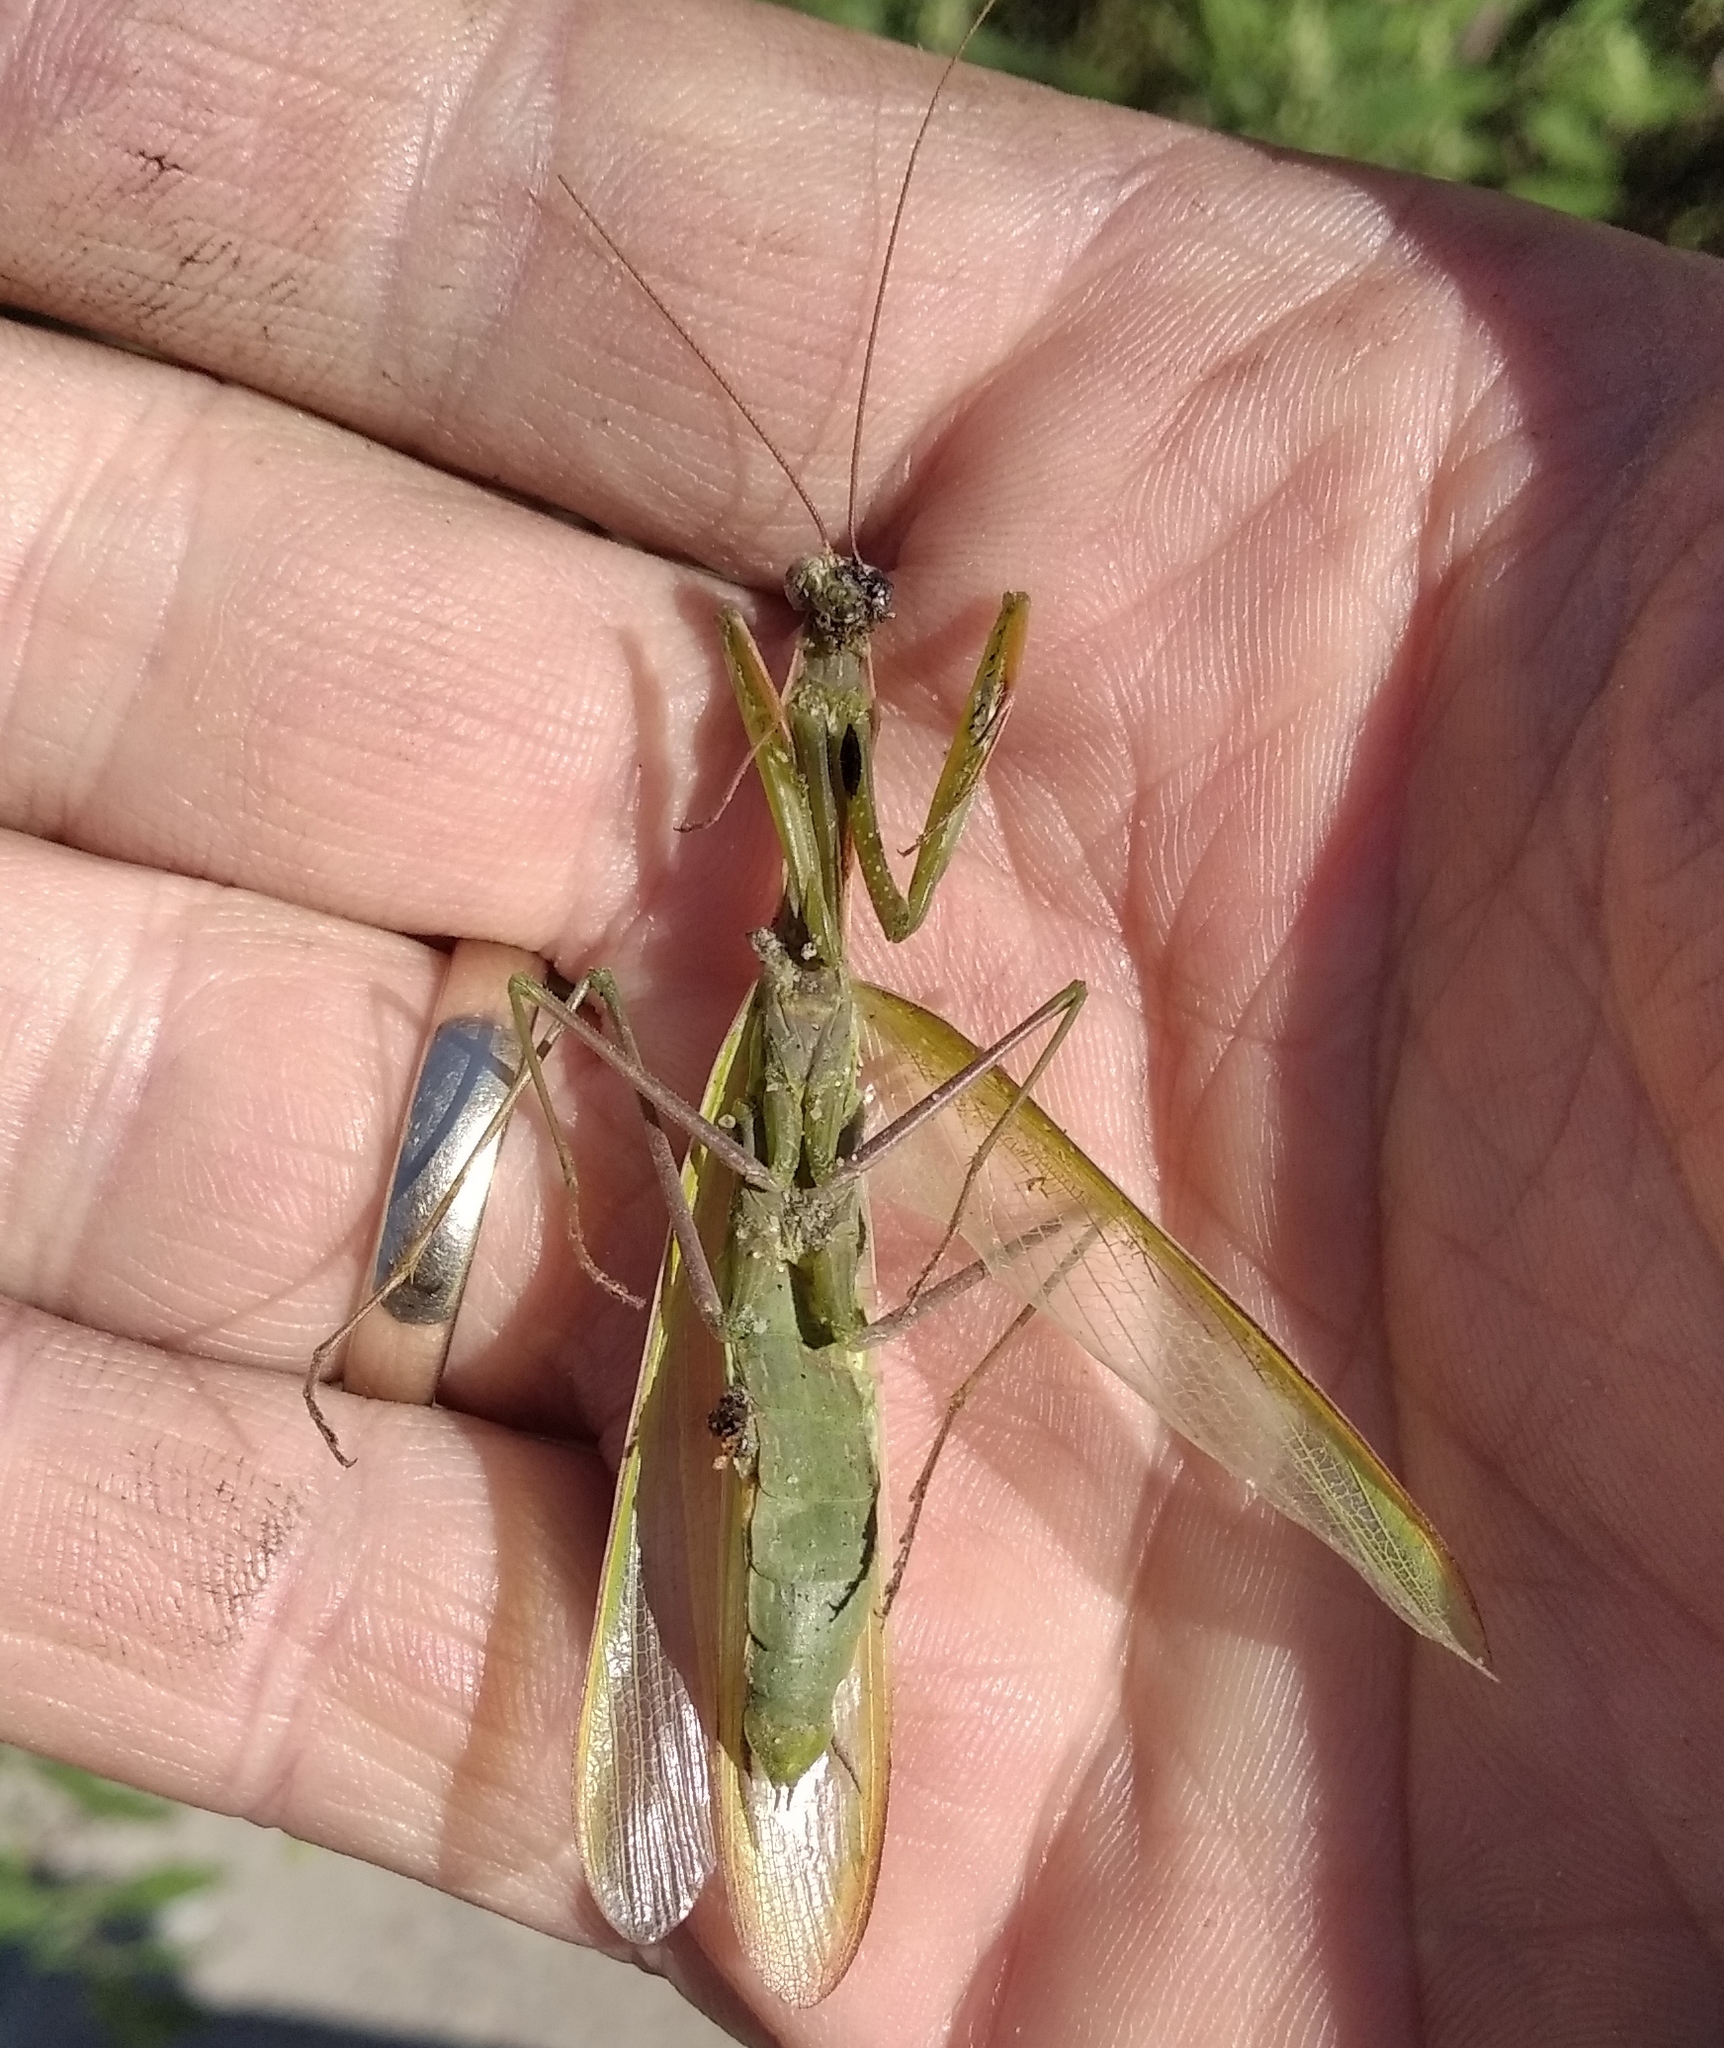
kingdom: Animalia
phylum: Arthropoda
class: Insecta
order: Mantodea
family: Mantidae
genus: Mantis
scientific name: Mantis religiosa
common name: Praying mantis
